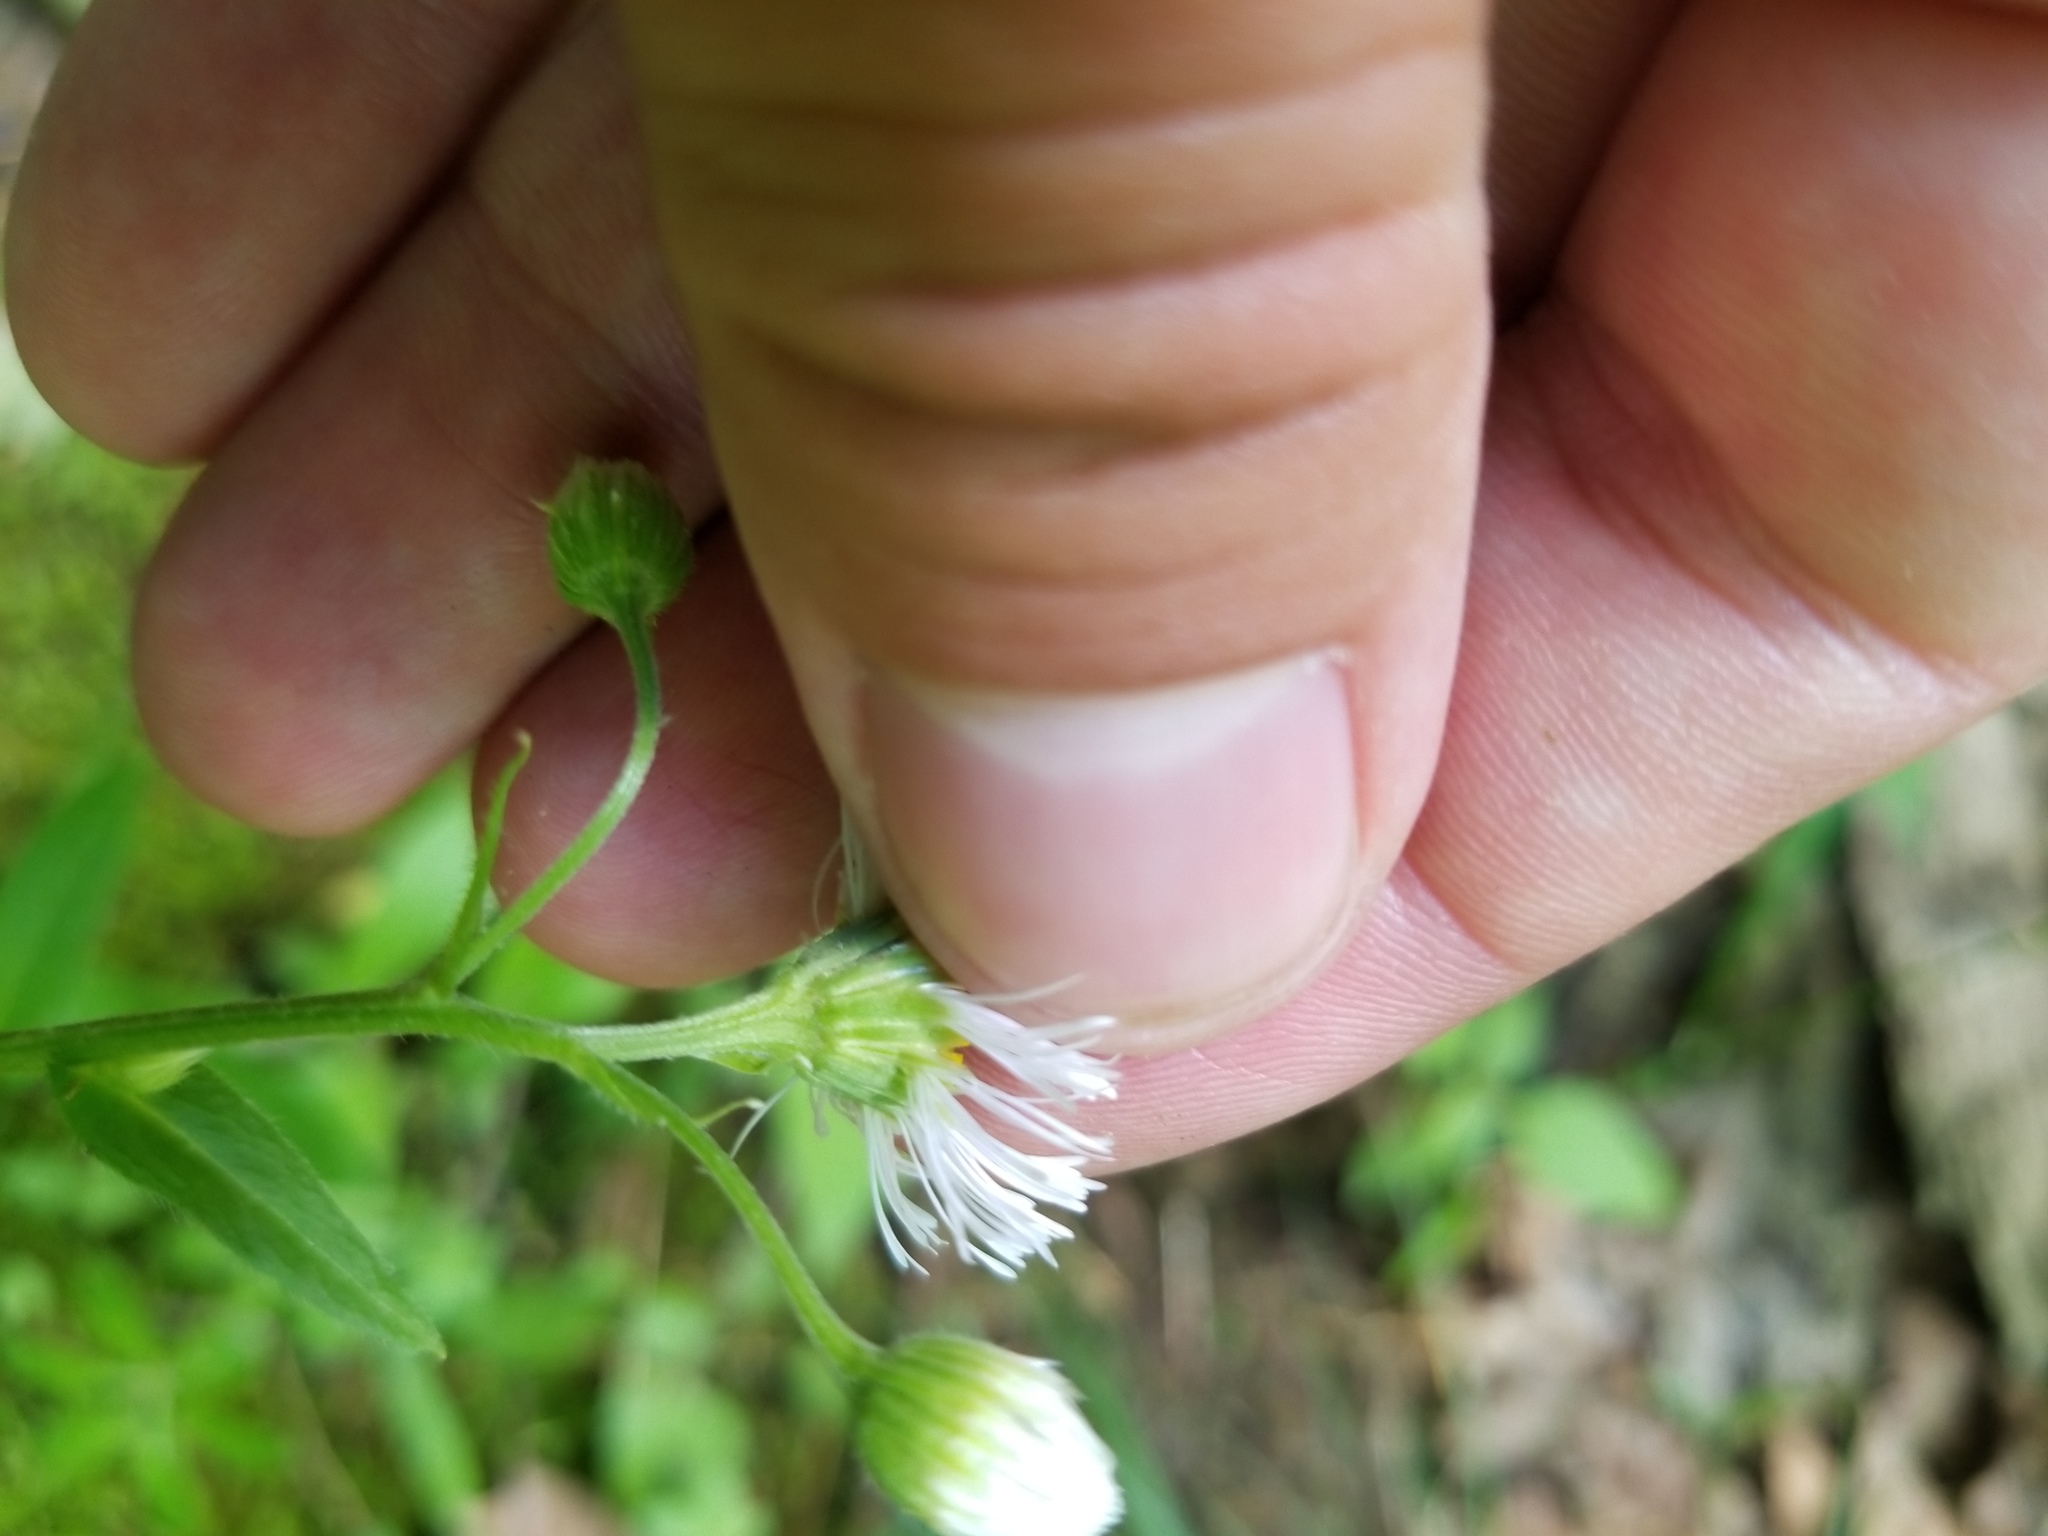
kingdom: Plantae
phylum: Tracheophyta
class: Magnoliopsida
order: Asterales
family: Asteraceae
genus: Erigeron
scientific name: Erigeron philadelphicus
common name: Robin's-plantain
